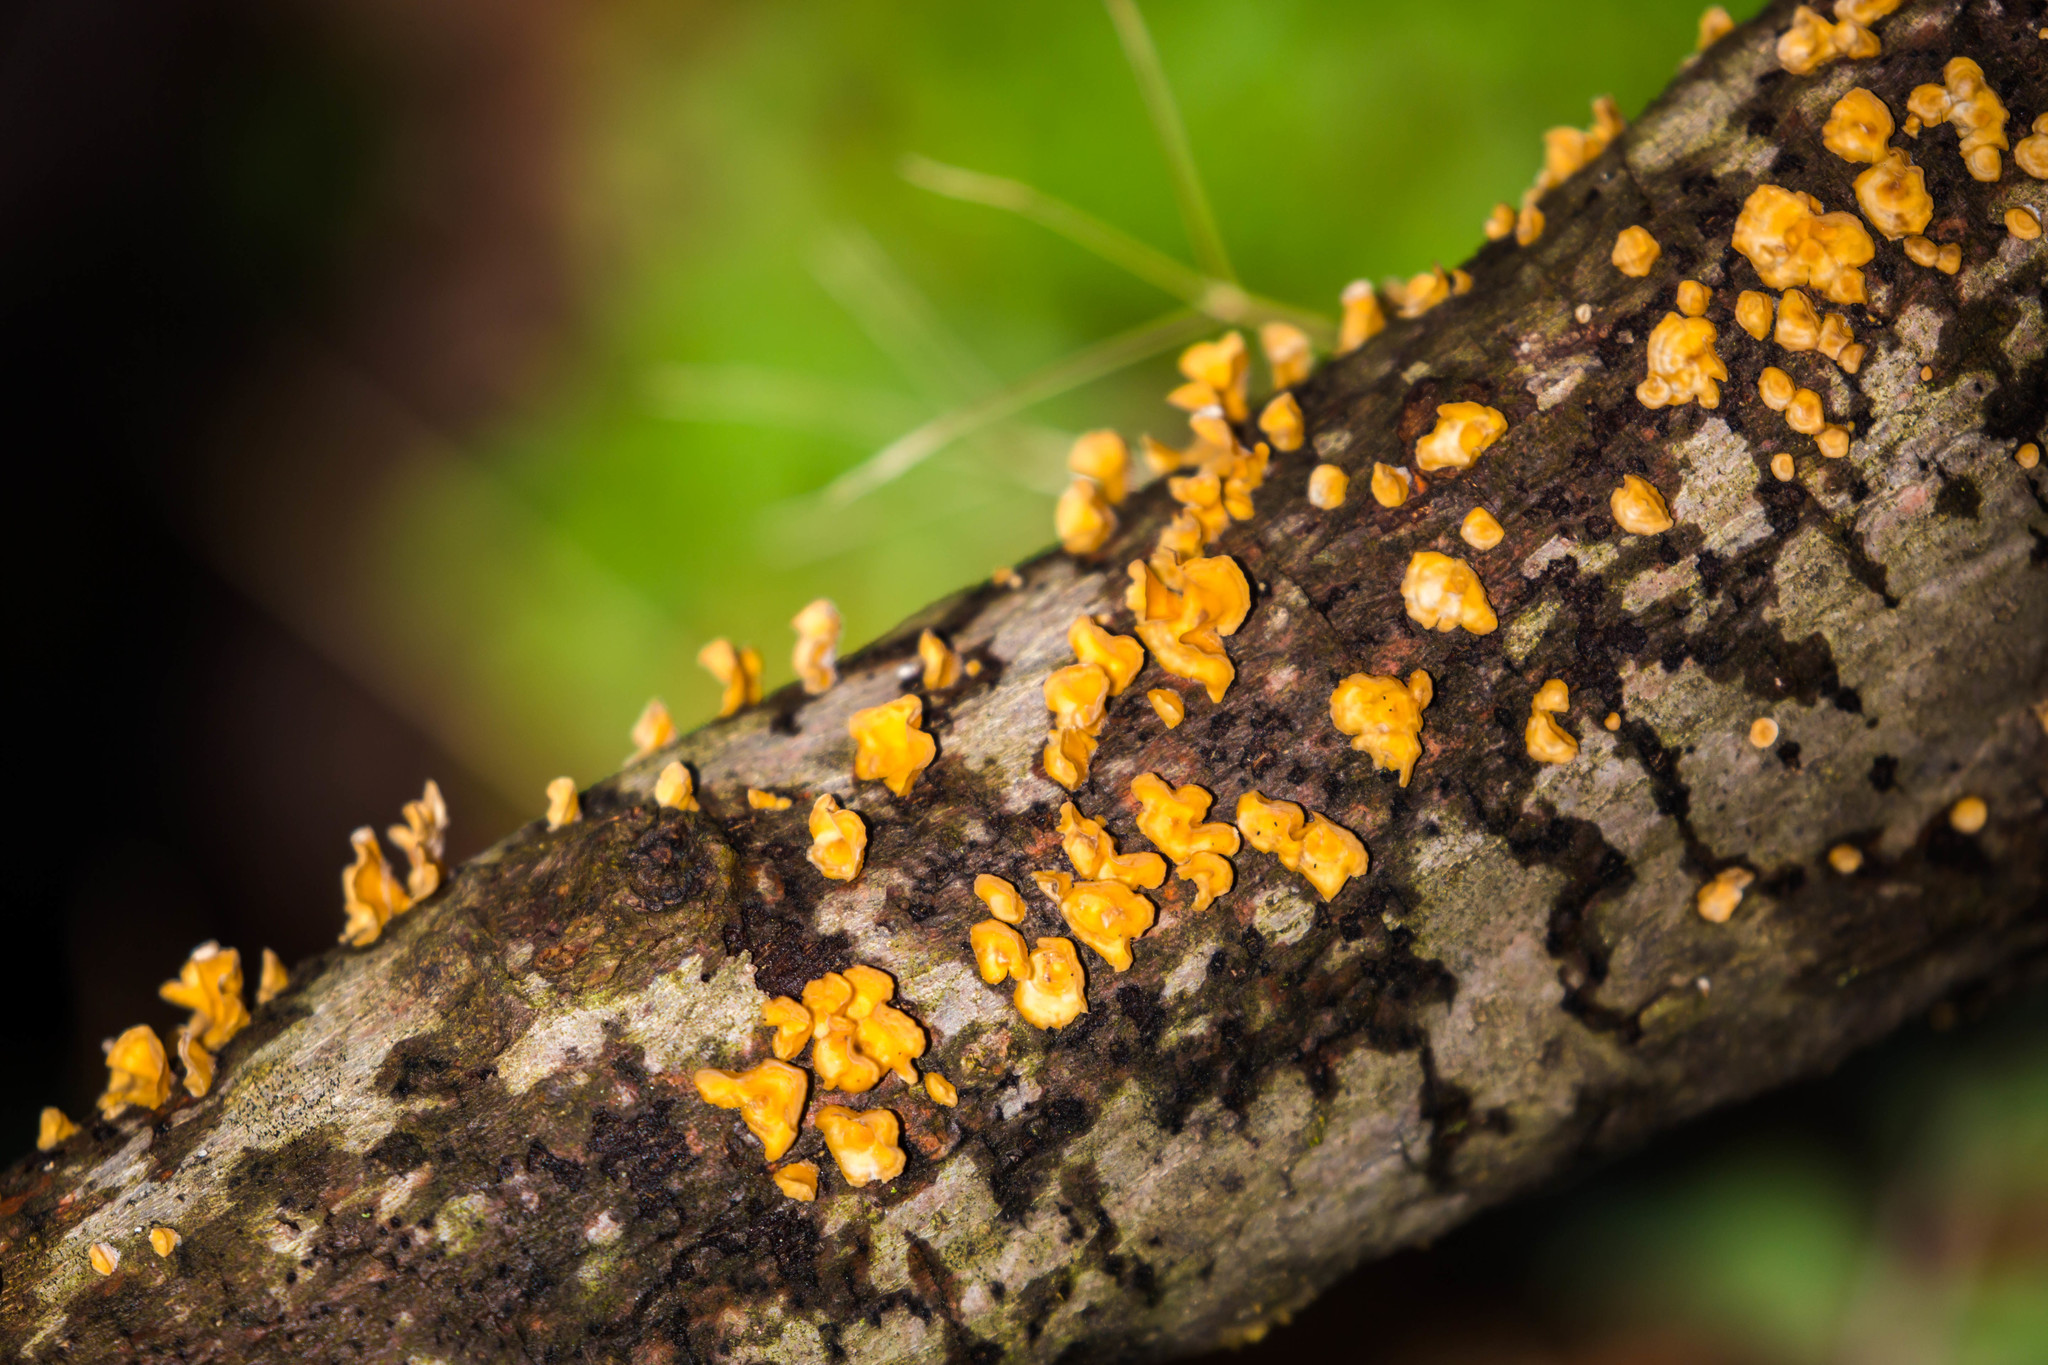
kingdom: Fungi
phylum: Basidiomycota
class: Agaricomycetes
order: Russulales
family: Stereaceae
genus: Stereum
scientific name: Stereum complicatum
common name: Crowded parchment
